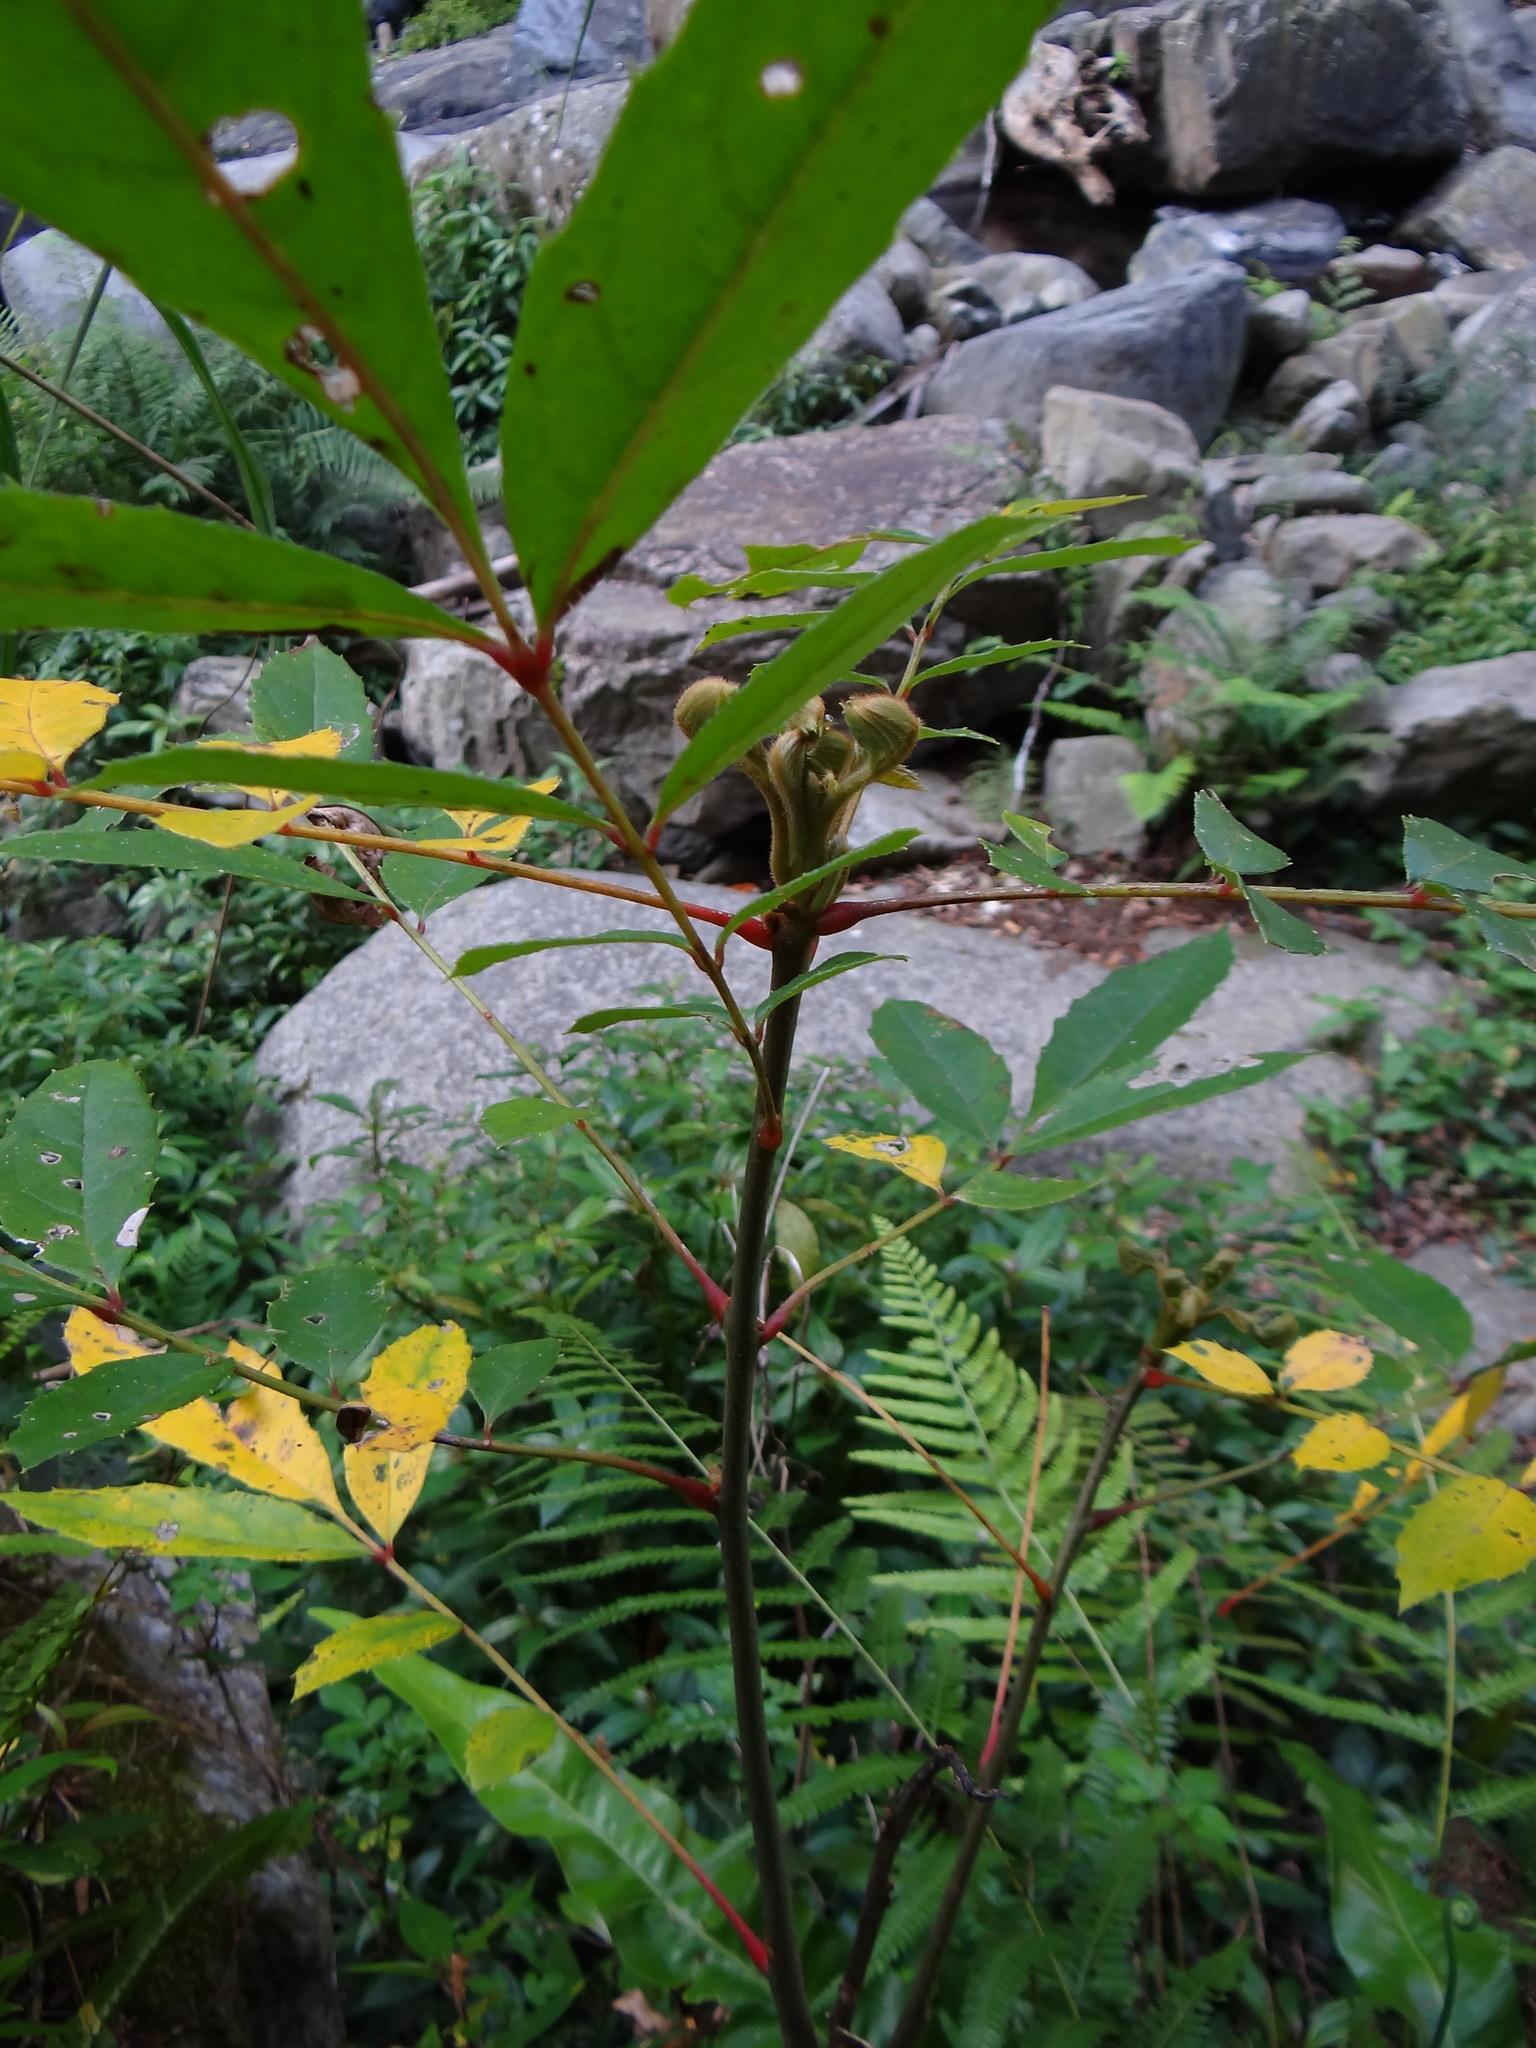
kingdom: Plantae
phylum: Tracheophyta
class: Magnoliopsida
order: Proteales
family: Sabiaceae
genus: Meliosma
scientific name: Meliosma rhoifolia
